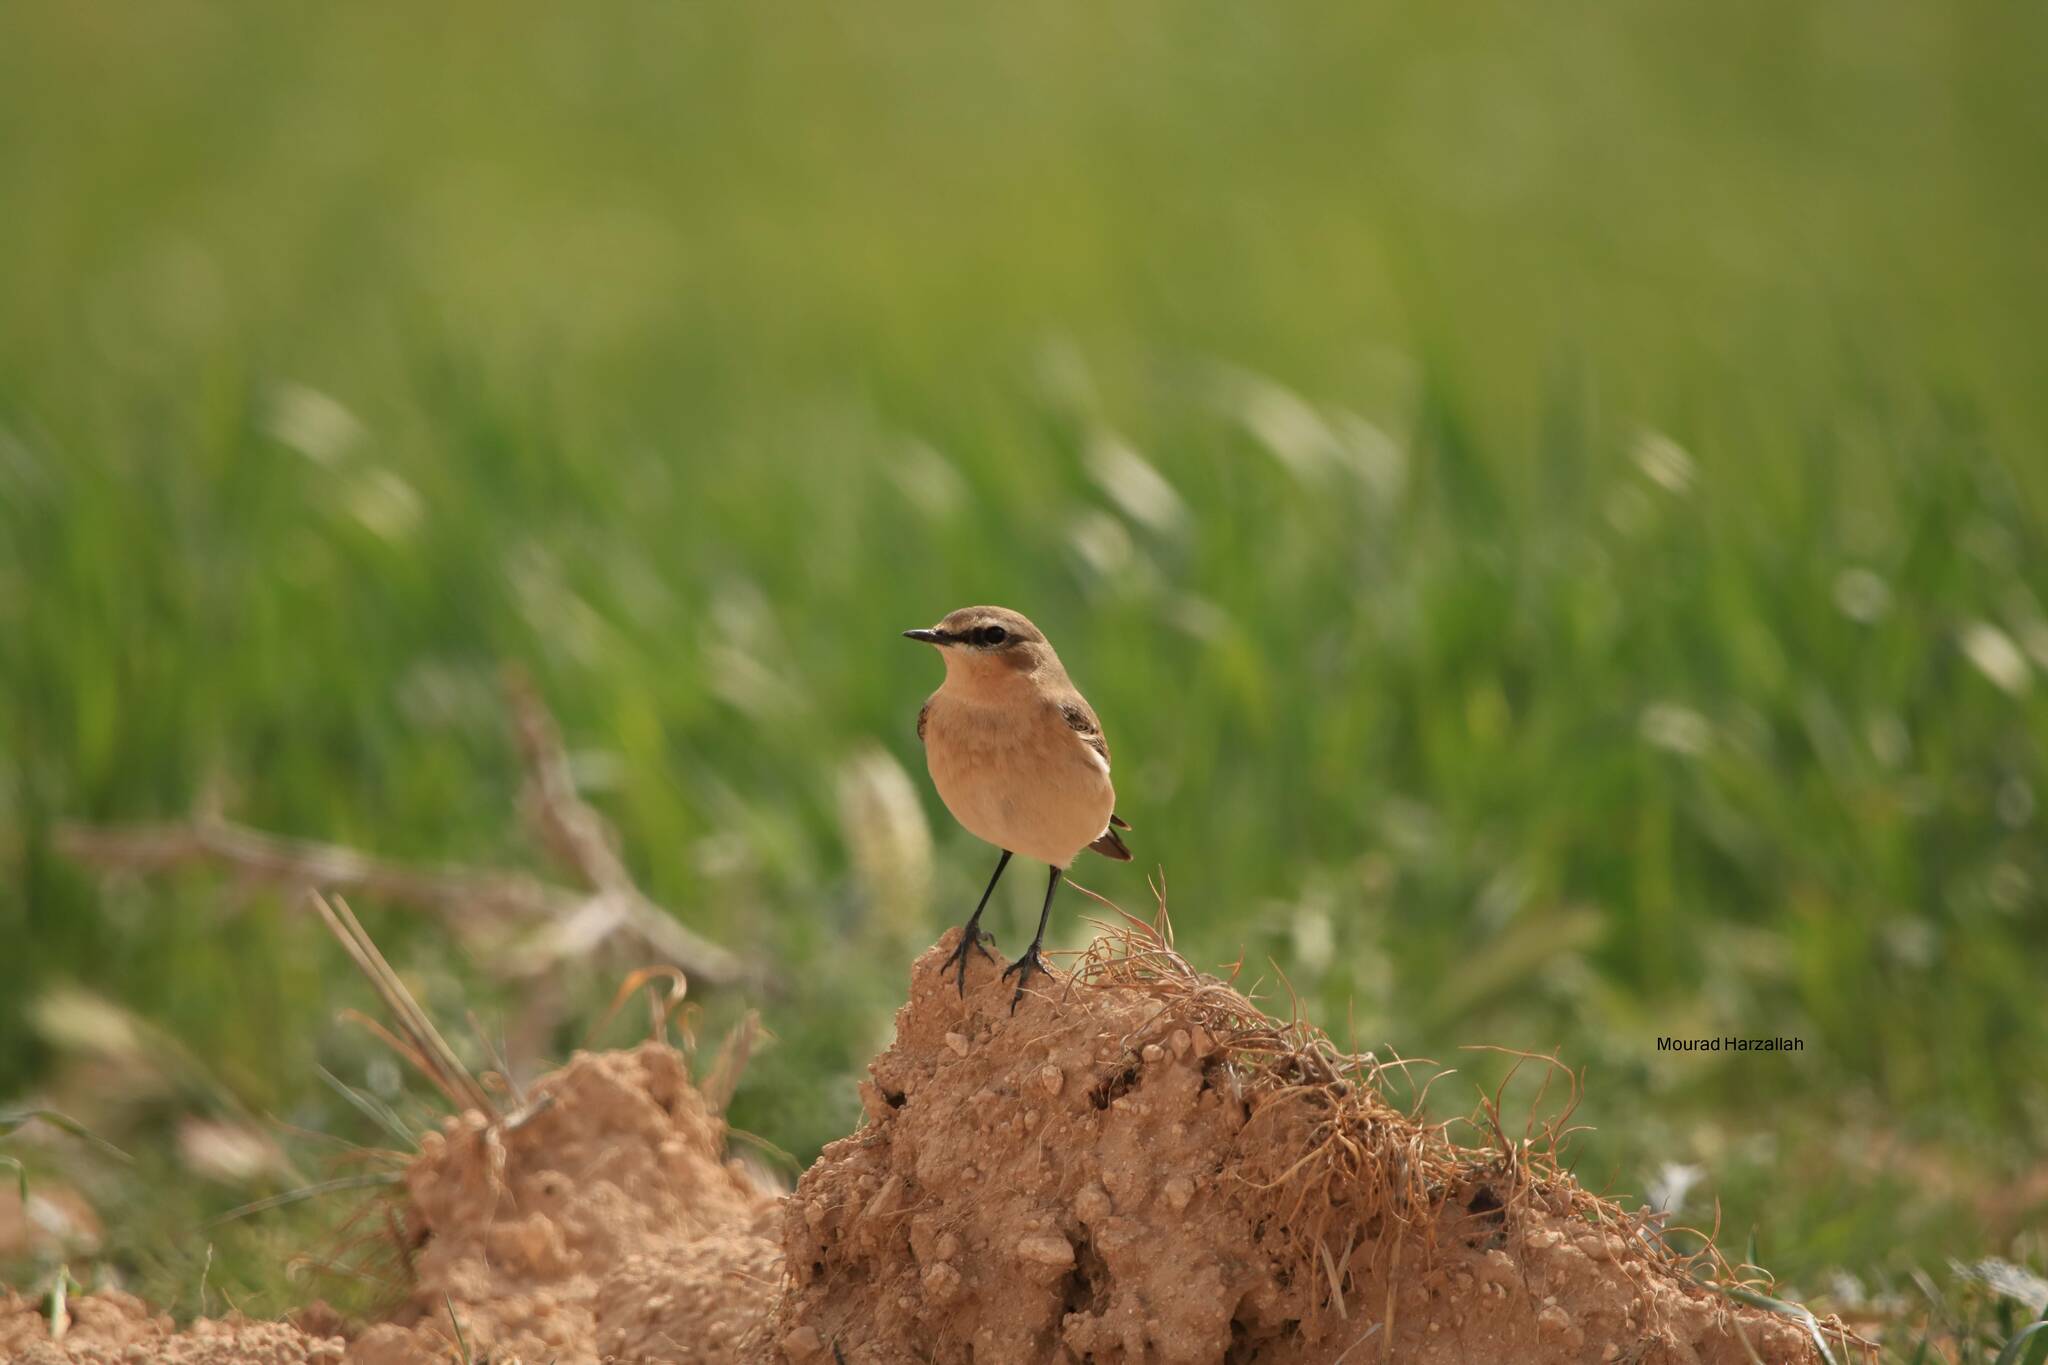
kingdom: Animalia
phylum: Chordata
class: Aves
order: Passeriformes
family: Muscicapidae
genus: Oenanthe
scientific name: Oenanthe oenanthe
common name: Northern wheatear
